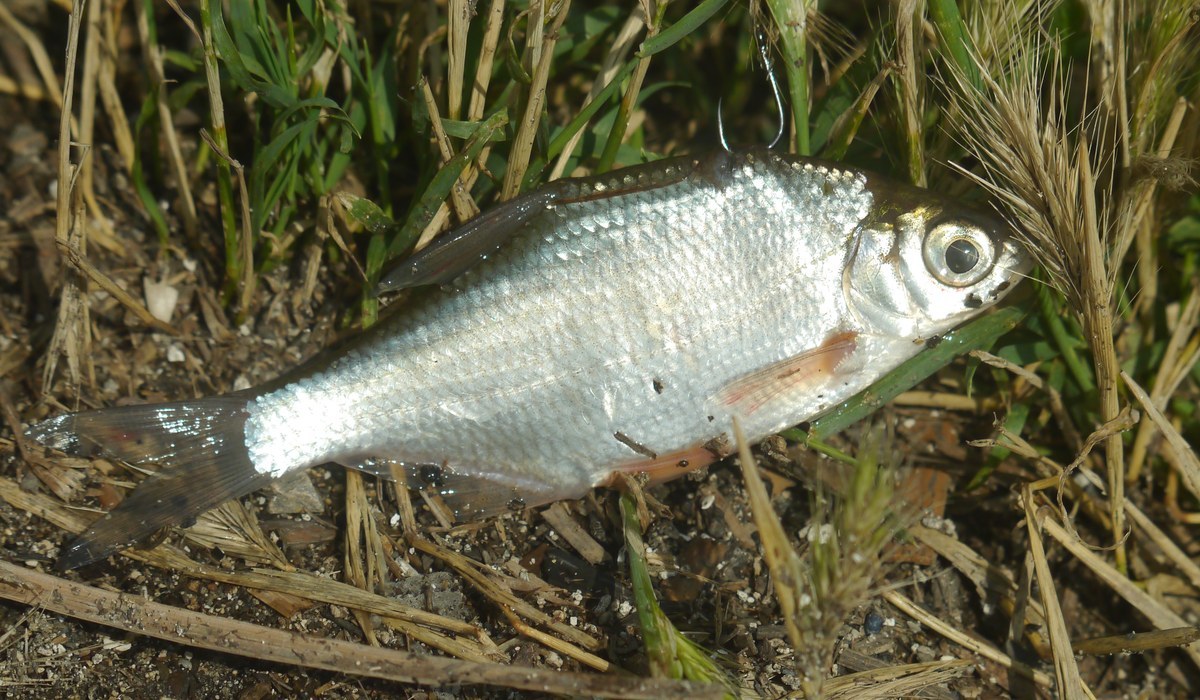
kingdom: Animalia
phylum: Chordata
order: Cypriniformes
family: Cyprinidae
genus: Blicca
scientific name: Blicca bjoerkna
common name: White bream
